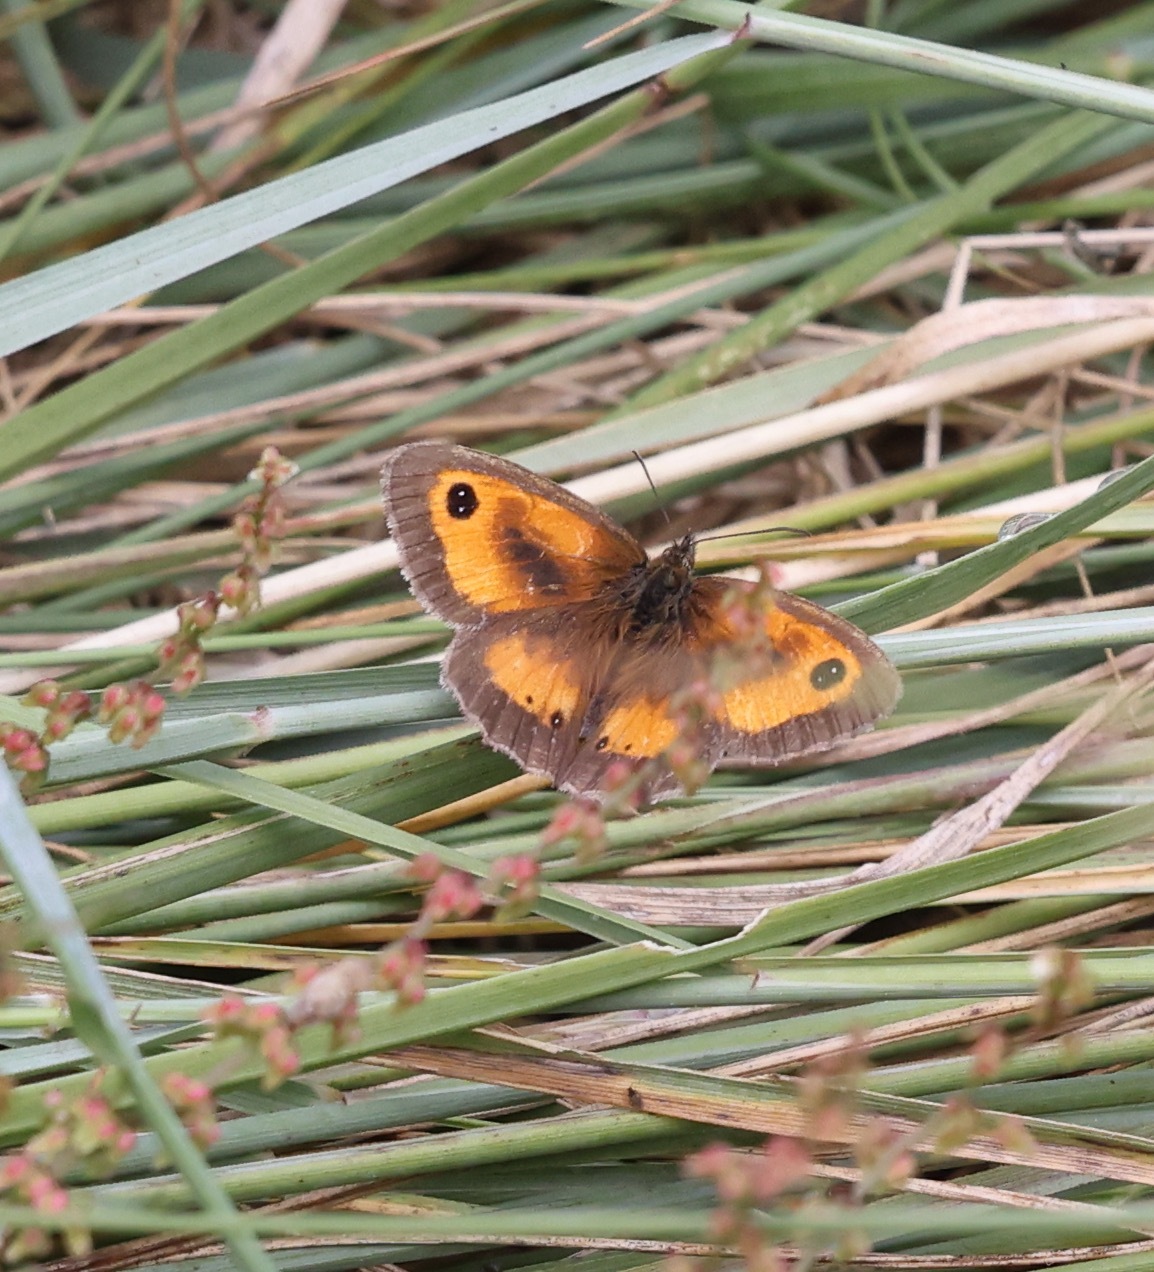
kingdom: Animalia
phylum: Arthropoda
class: Insecta
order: Lepidoptera
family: Nymphalidae
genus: Pyronia
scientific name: Pyronia tithonus
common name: Gatekeeper
